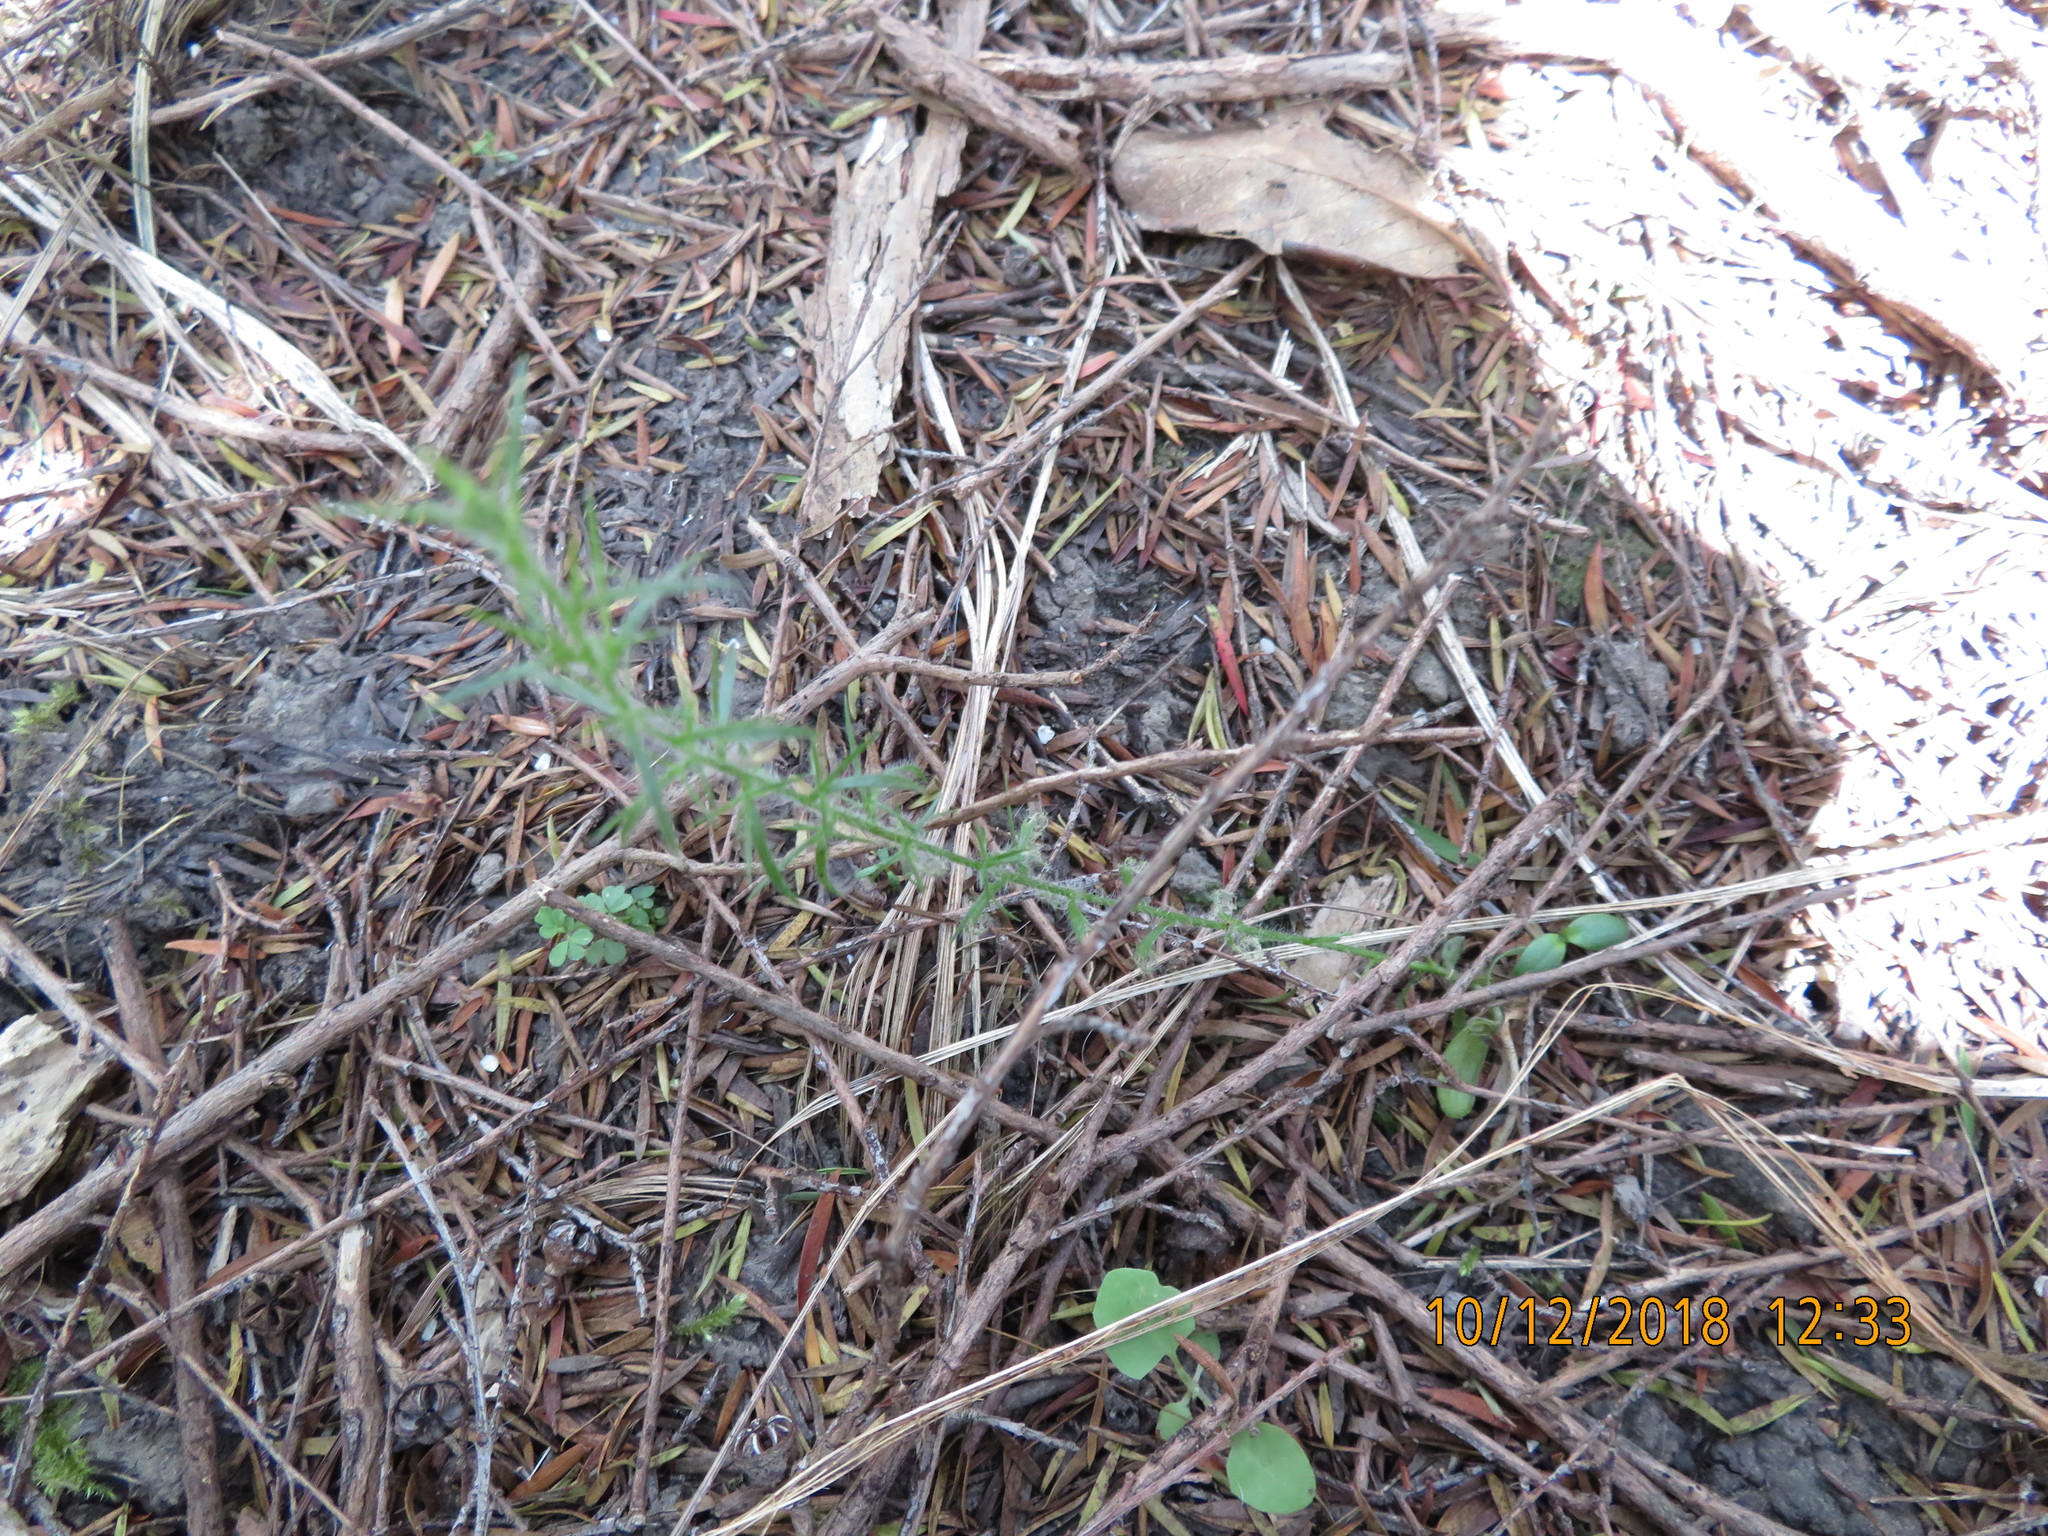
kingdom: Plantae
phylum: Tracheophyta
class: Magnoliopsida
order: Fabales
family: Fabaceae
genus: Ulex
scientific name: Ulex europaeus
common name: Common gorse
